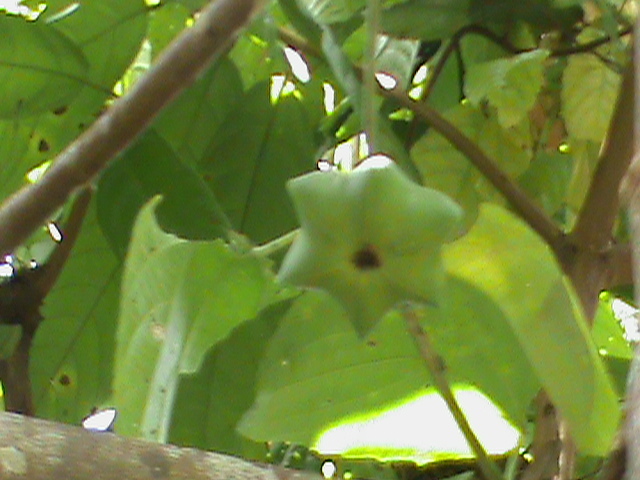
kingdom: Plantae
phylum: Tracheophyta
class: Magnoliopsida
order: Malpighiales
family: Euphorbiaceae
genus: Plukenetia
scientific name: Plukenetia volubilis
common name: Inca-peanut
